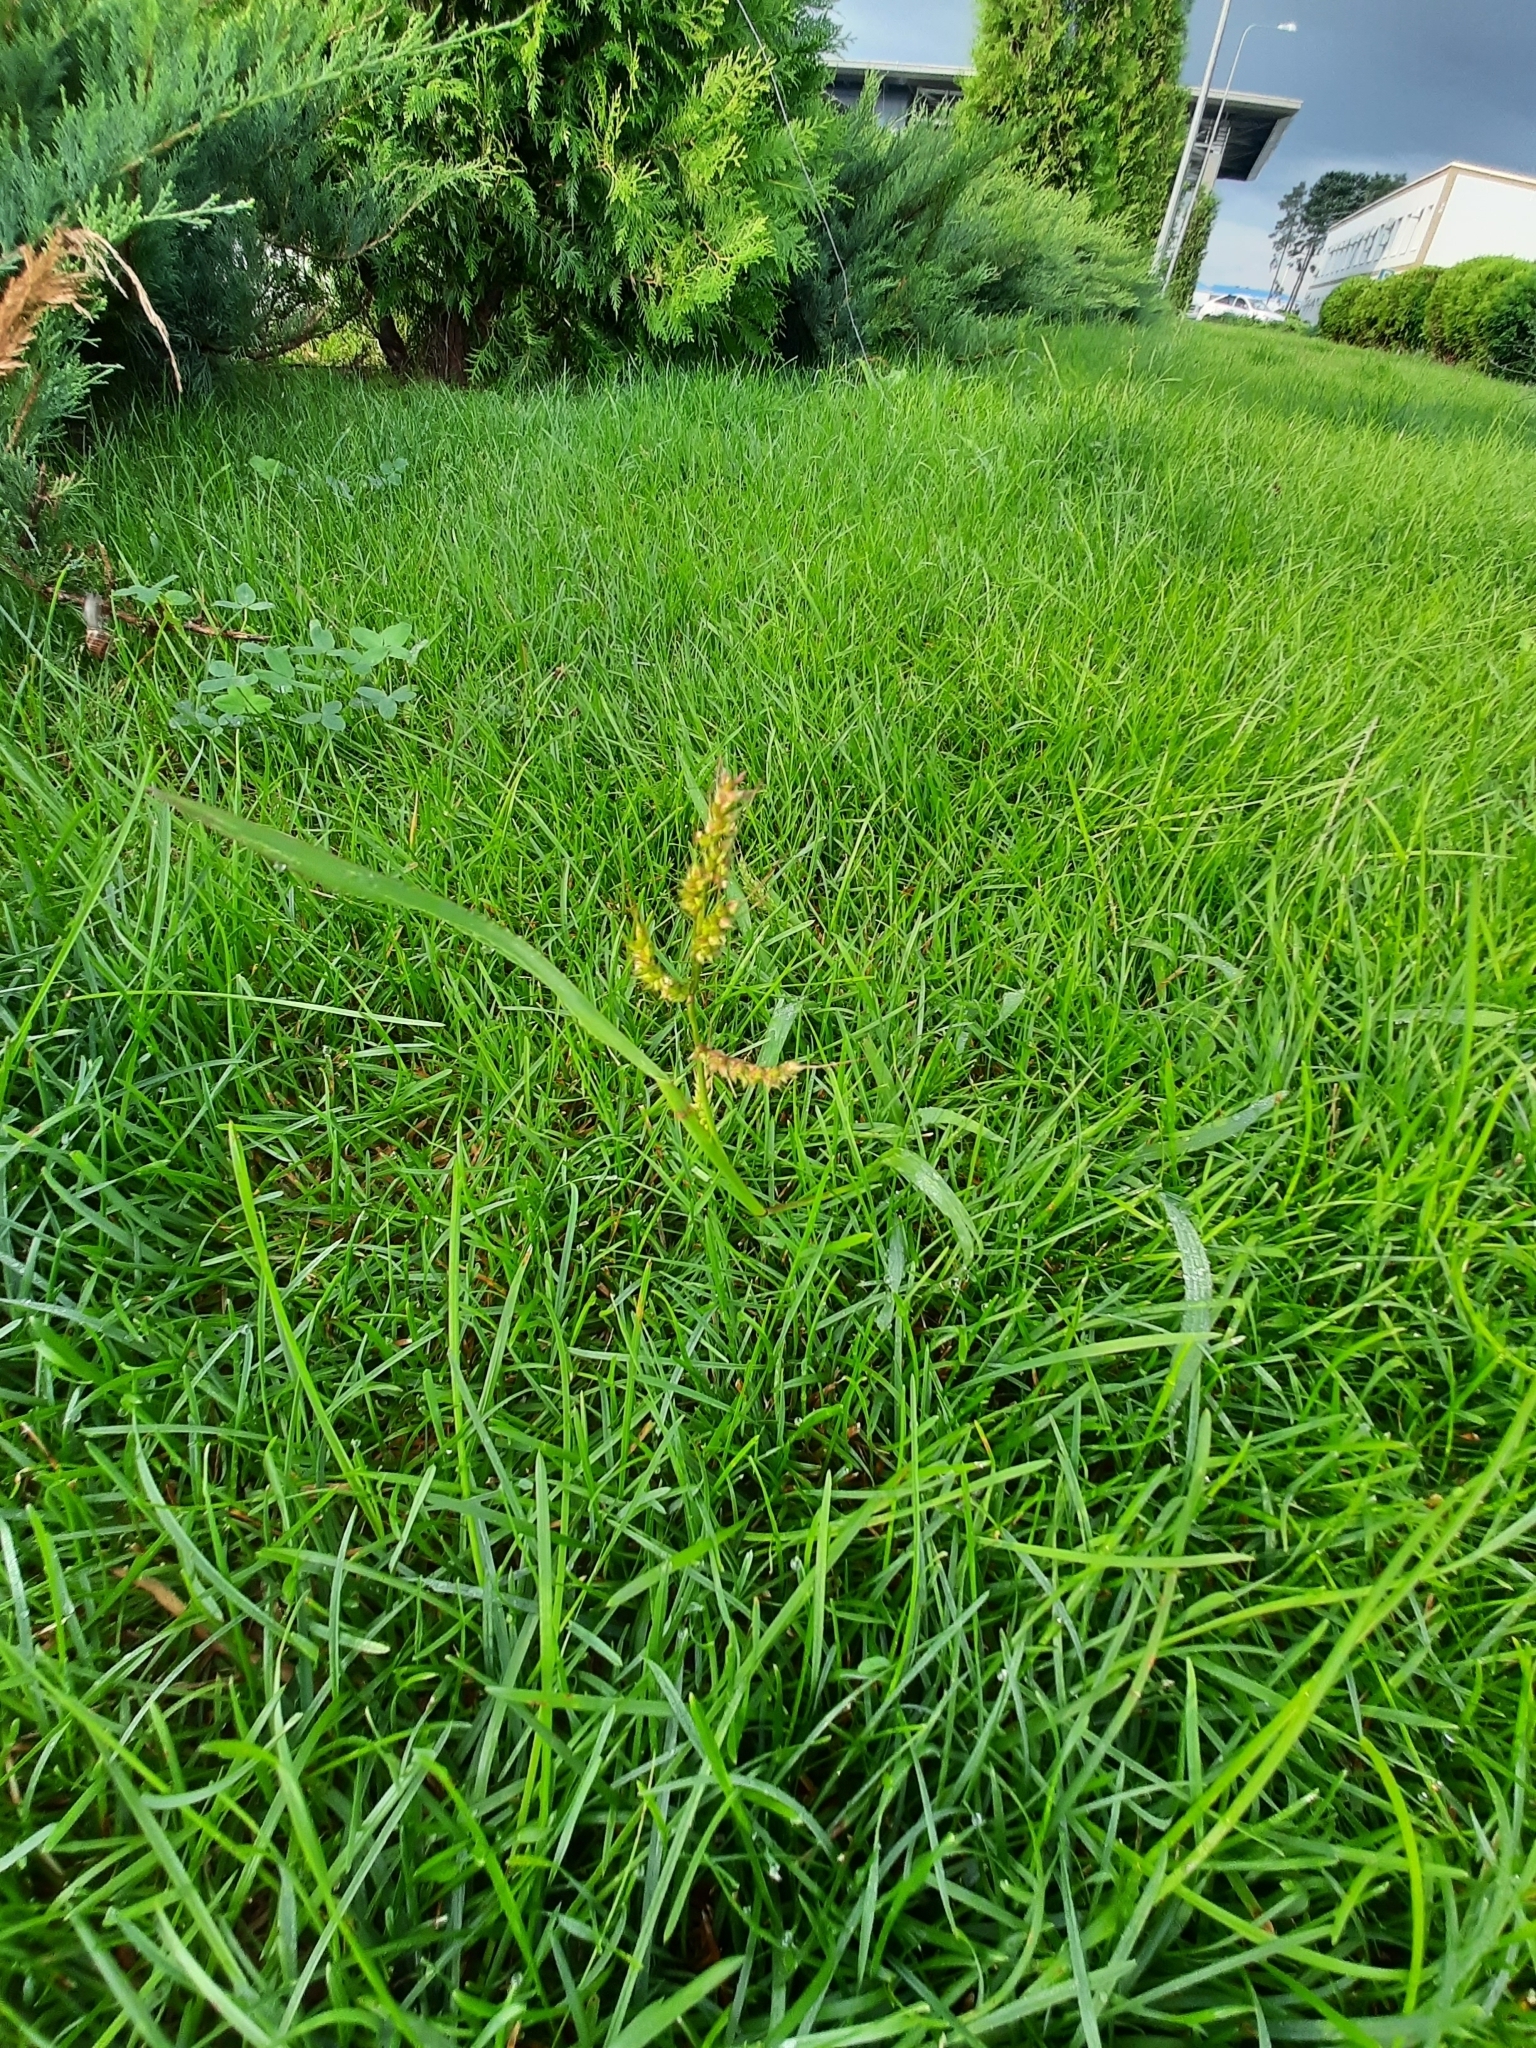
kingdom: Plantae
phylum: Tracheophyta
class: Liliopsida
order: Poales
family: Poaceae
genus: Echinochloa
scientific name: Echinochloa crus-galli
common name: Cockspur
